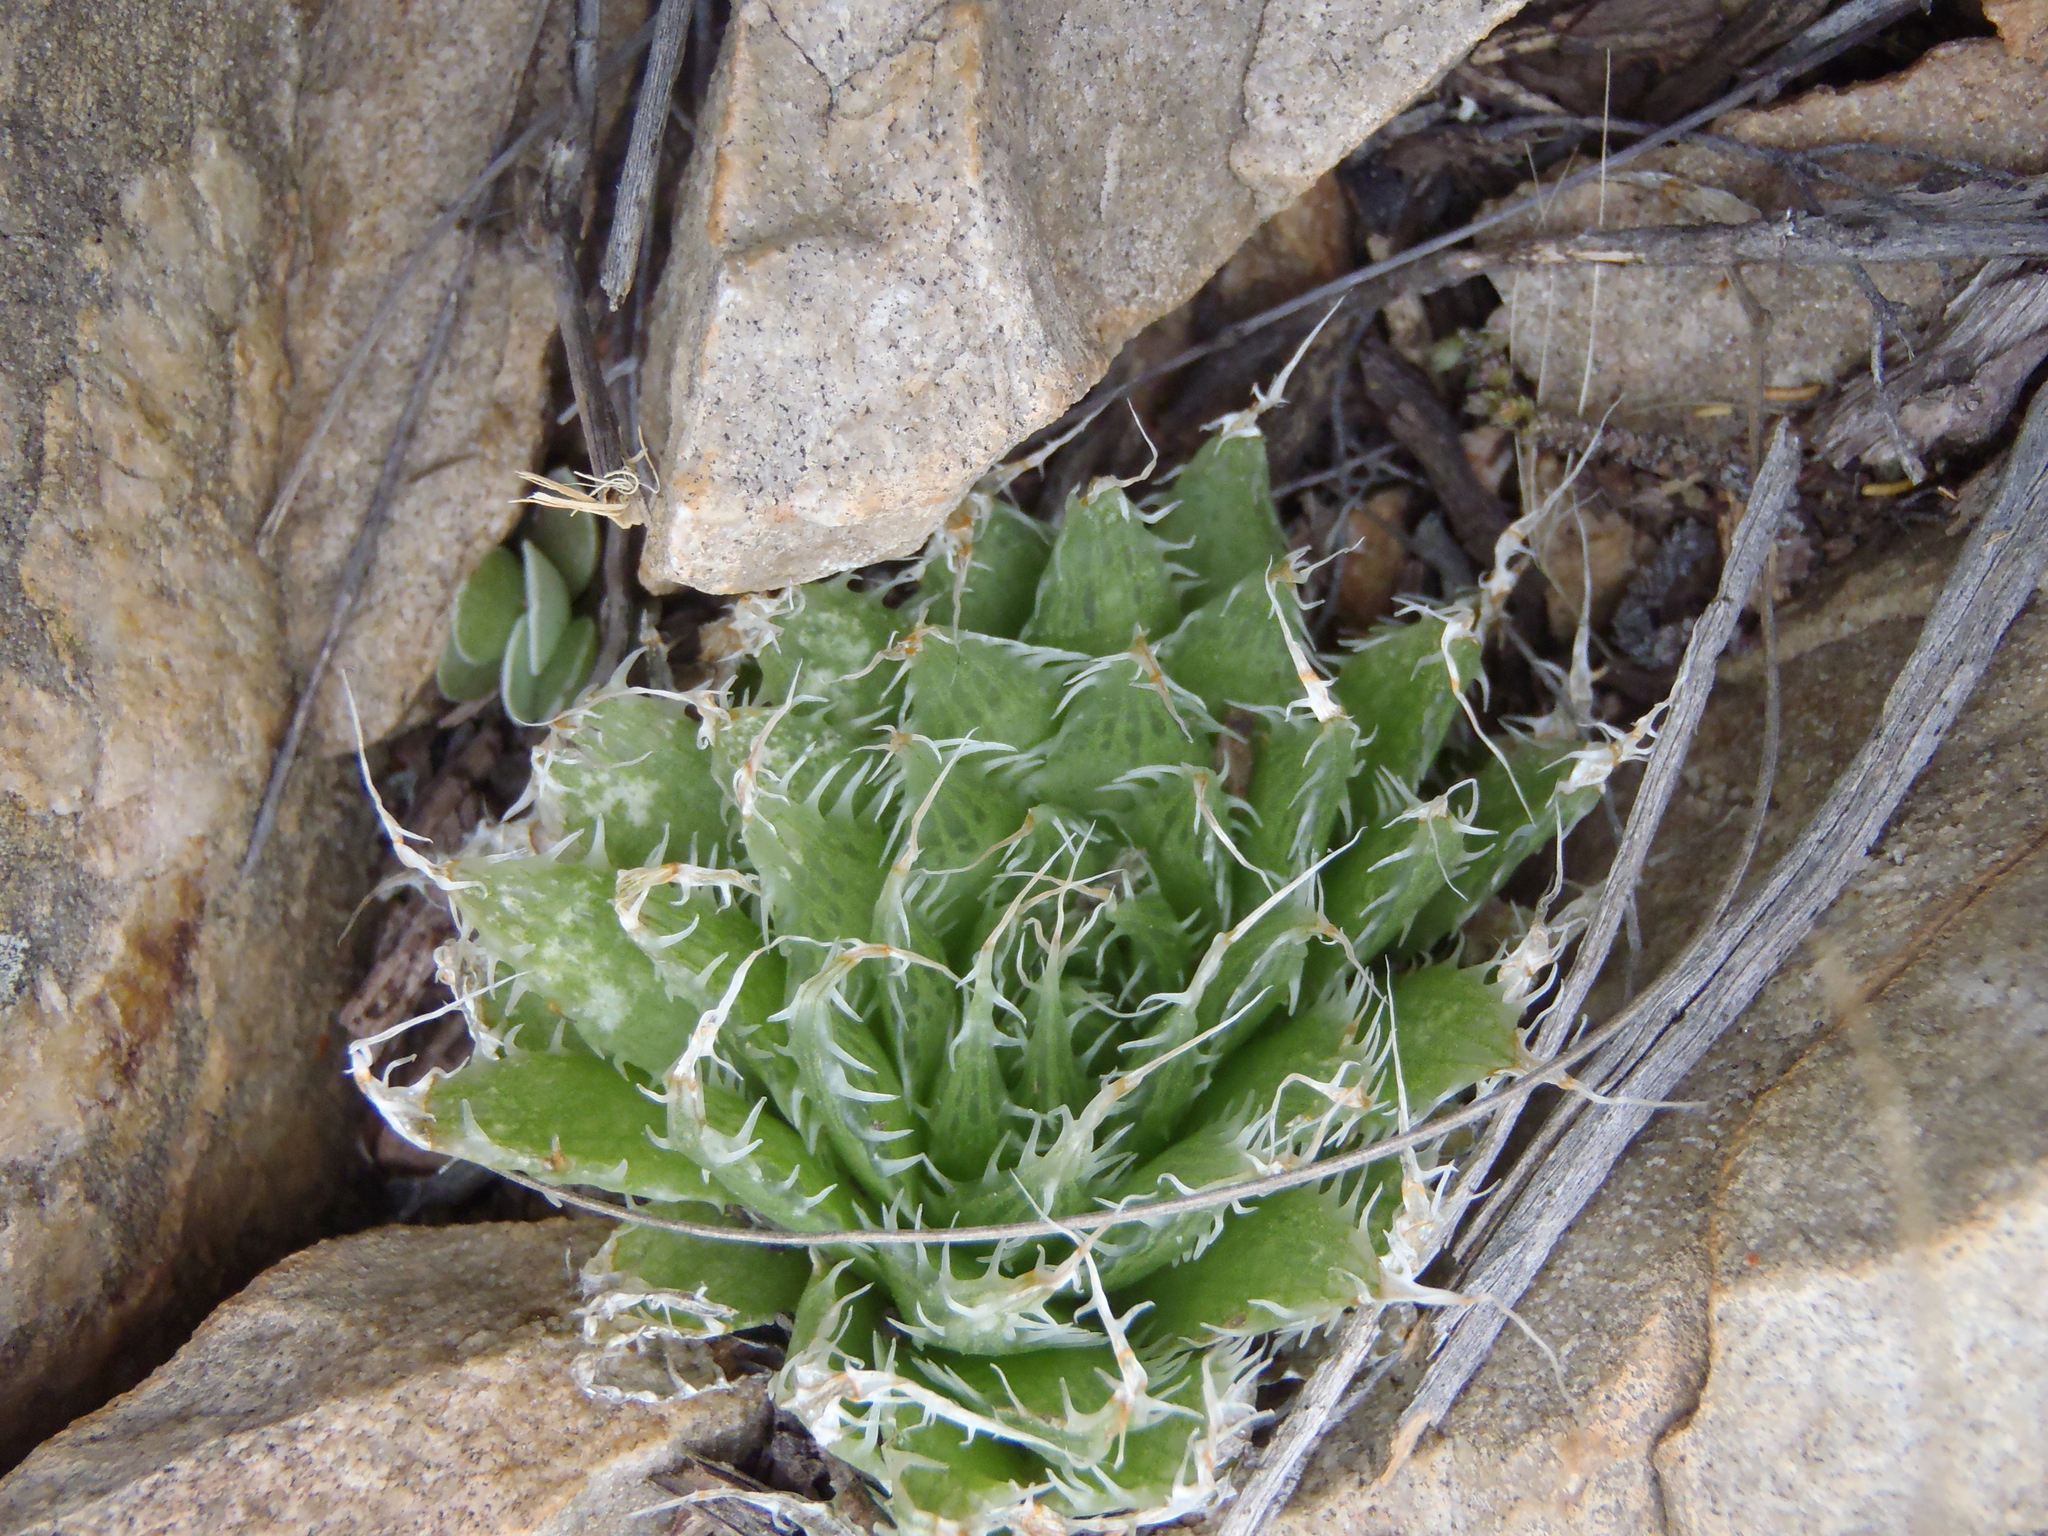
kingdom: Plantae
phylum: Tracheophyta
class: Liliopsida
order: Asparagales
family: Asphodelaceae
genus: Haworthia
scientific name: Haworthia decipiens
